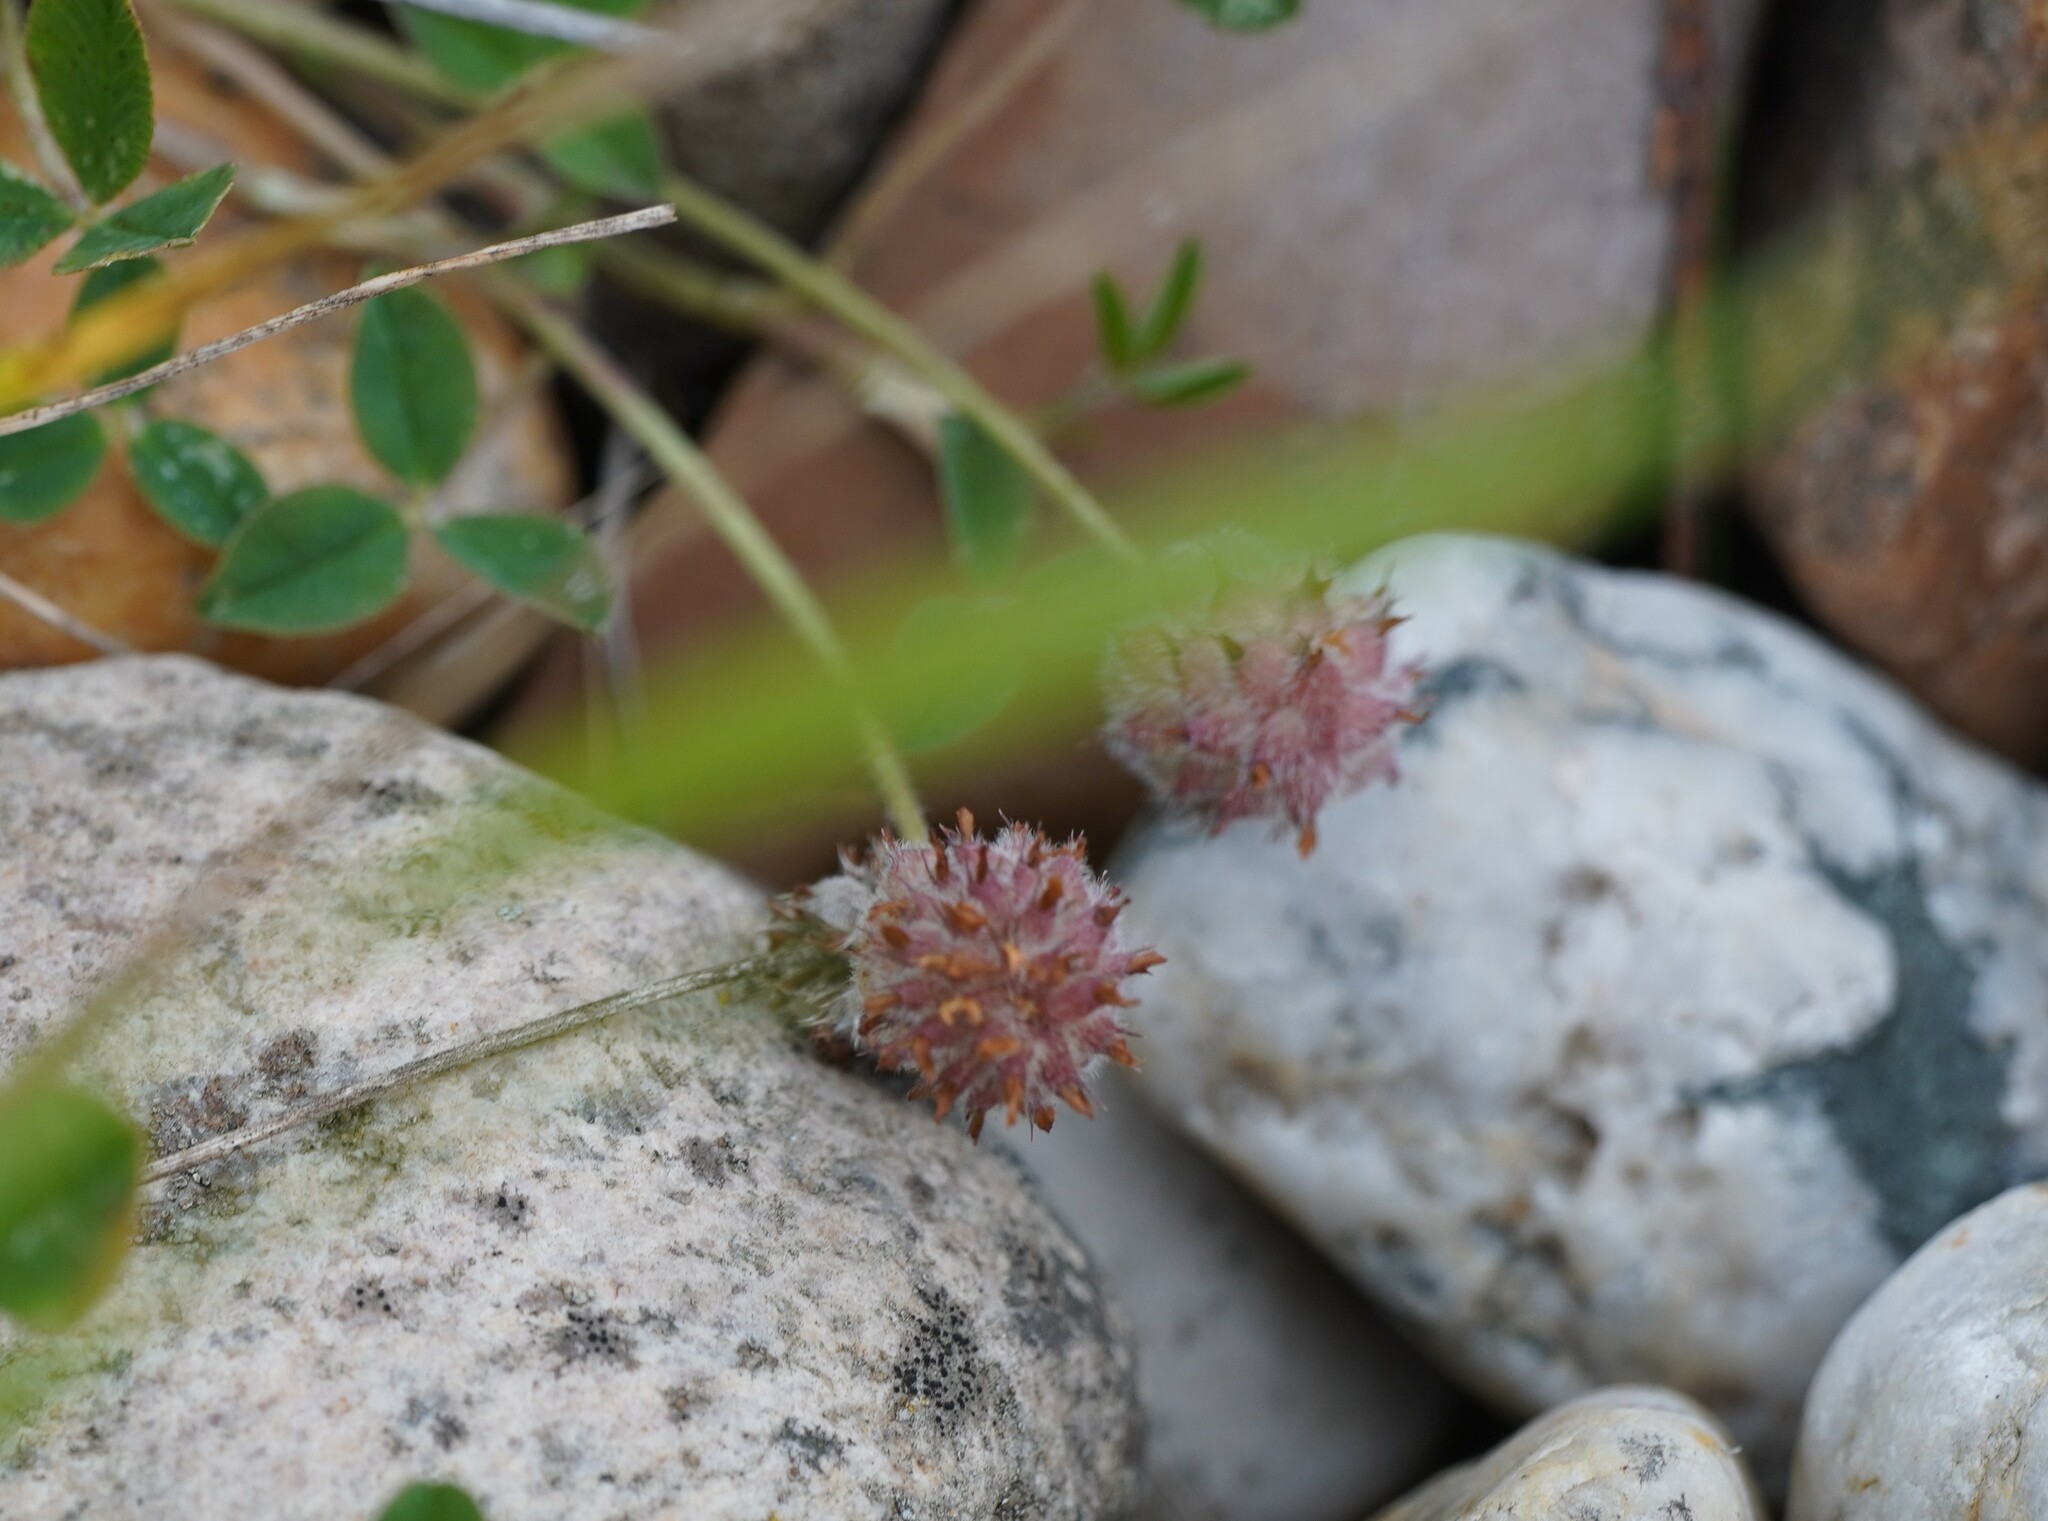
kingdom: Plantae
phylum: Tracheophyta
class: Magnoliopsida
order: Fabales
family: Fabaceae
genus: Trifolium
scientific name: Trifolium fragiferum
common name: Strawberry clover
